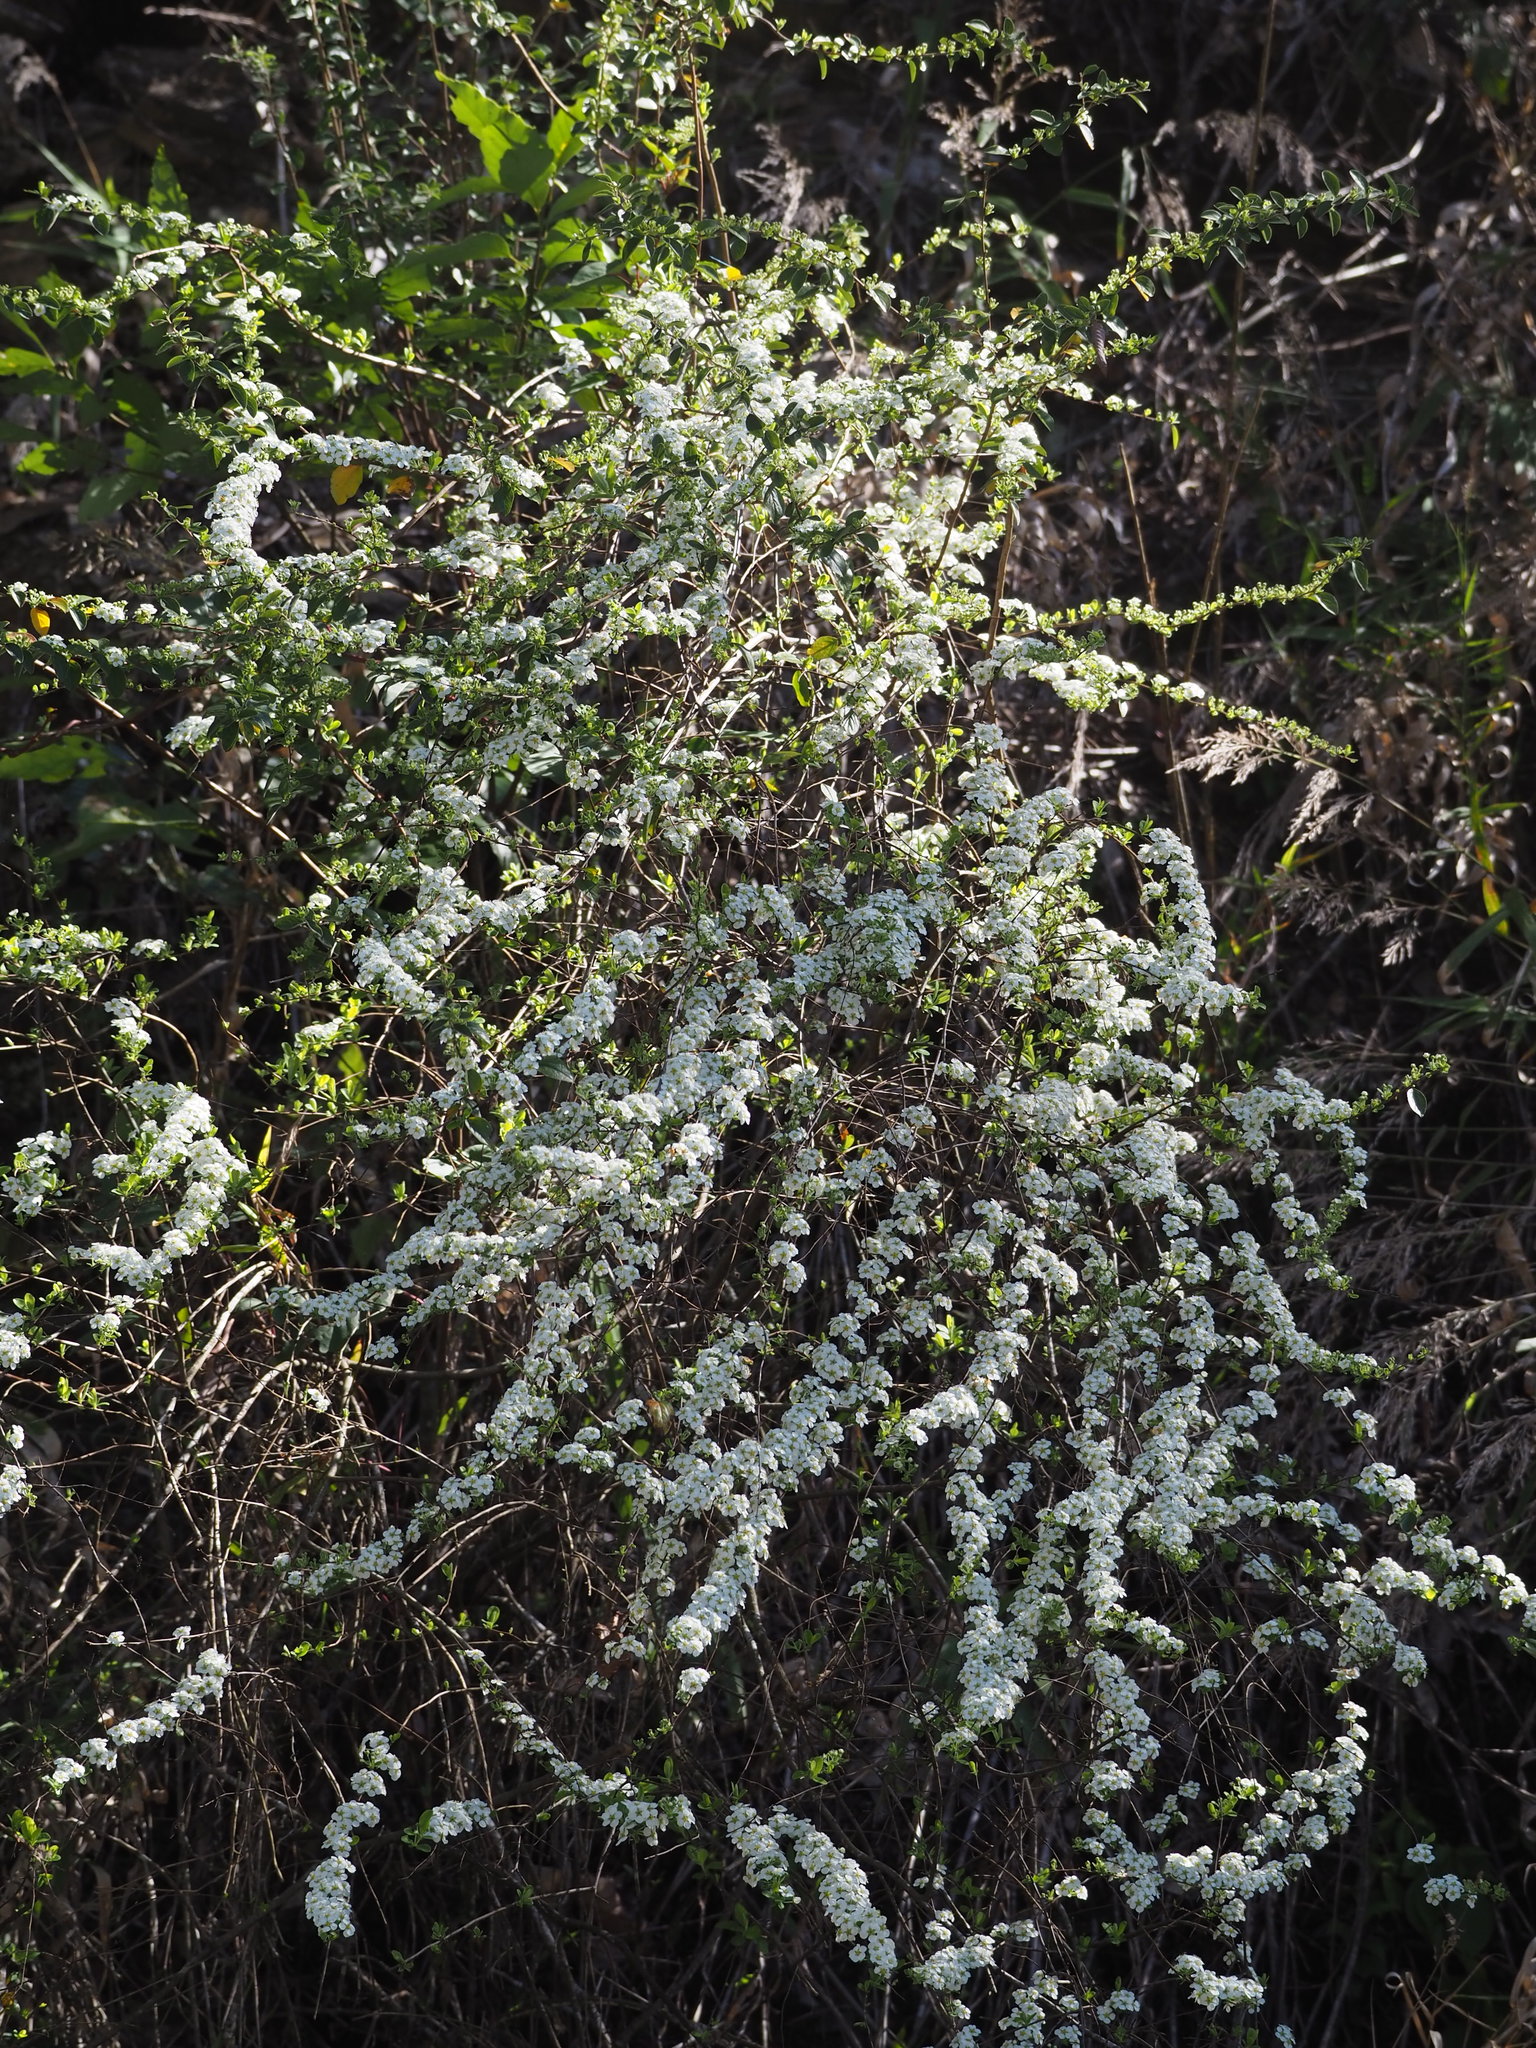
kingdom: Plantae
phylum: Tracheophyta
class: Magnoliopsida
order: Rosales
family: Rosaceae
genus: Spiraea
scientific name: Spiraea prunifolia
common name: Bridal-wreath spiraea
